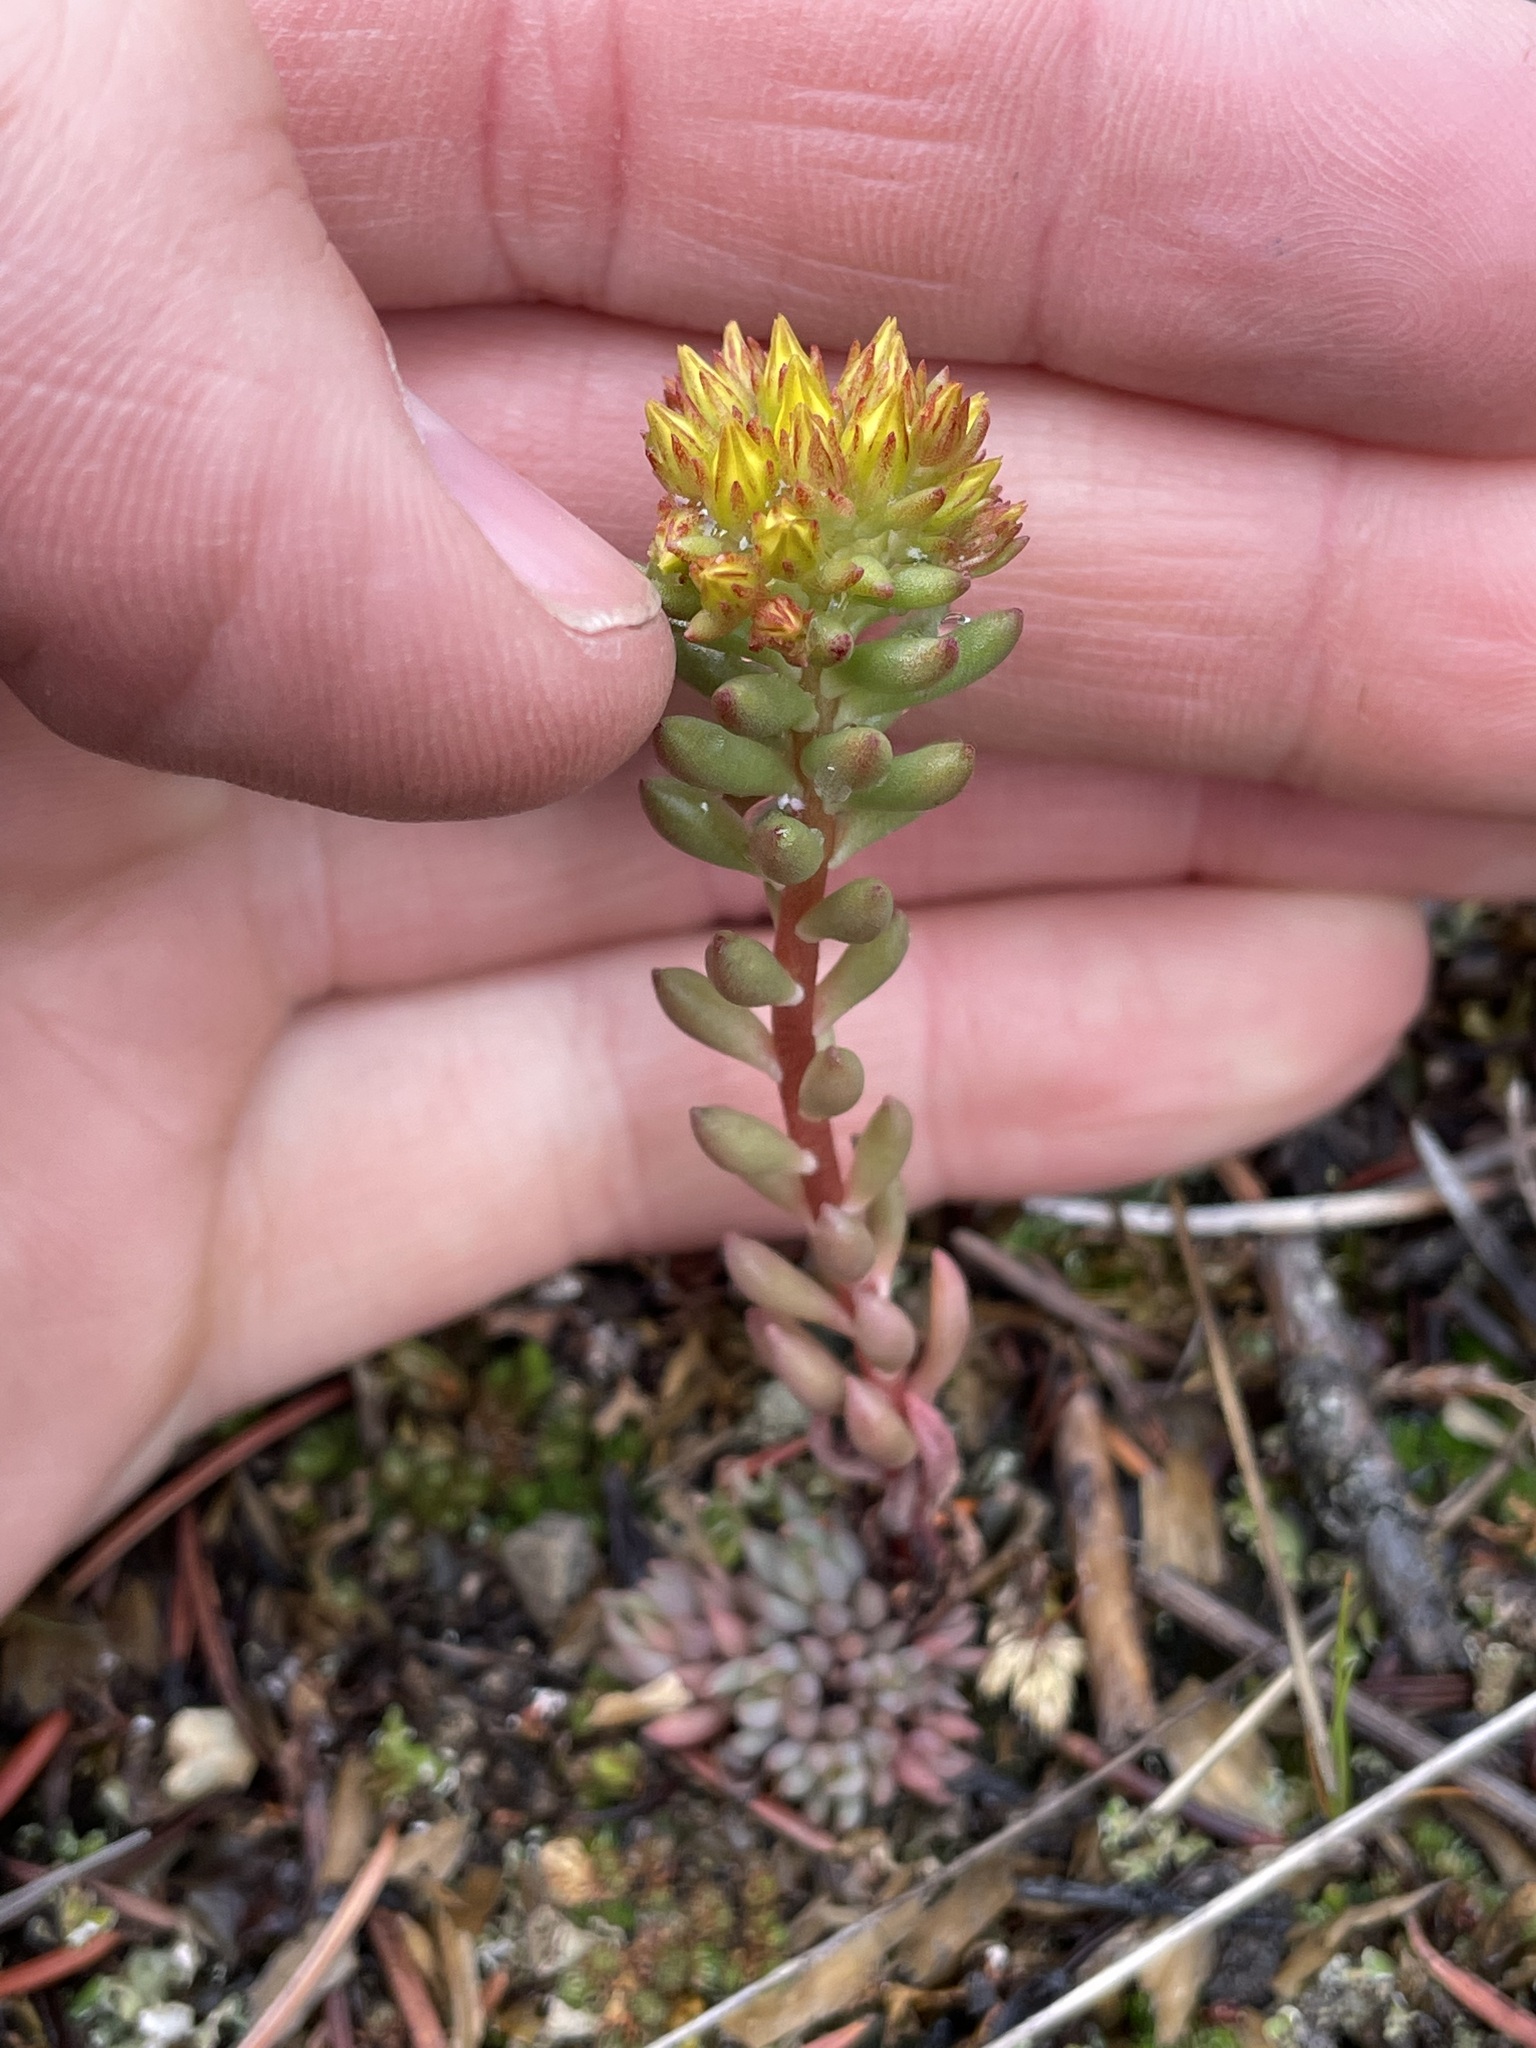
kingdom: Plantae
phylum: Tracheophyta
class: Magnoliopsida
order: Saxifragales
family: Crassulaceae
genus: Sedum
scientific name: Sedum lanceolatum
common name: Common stonecrop
